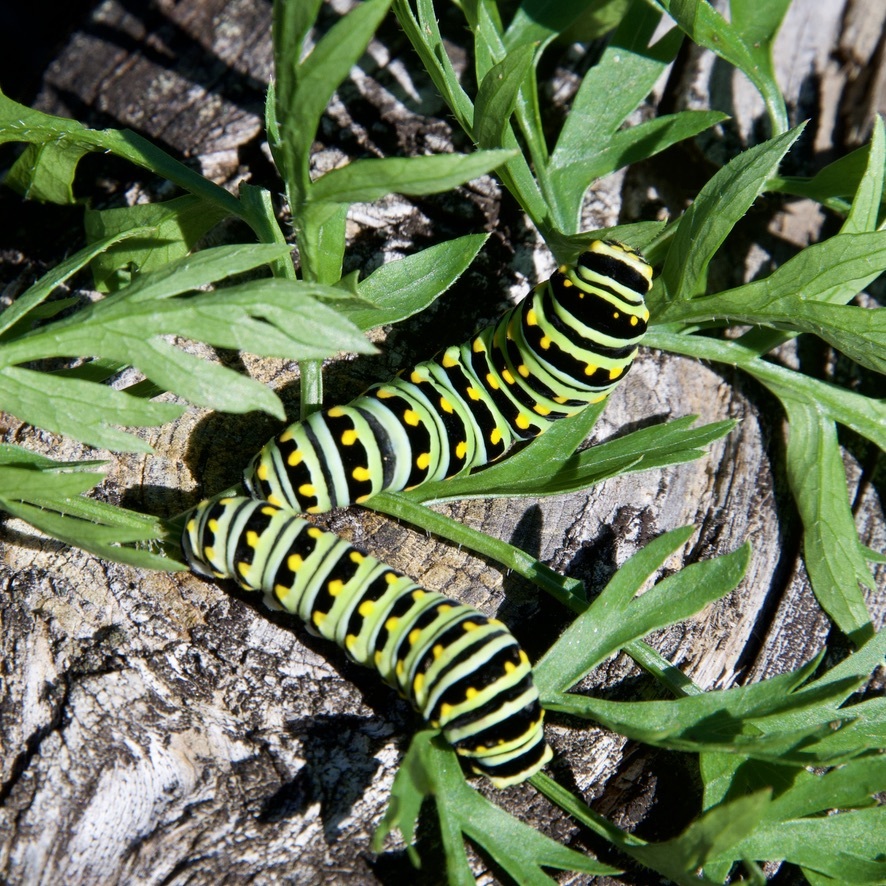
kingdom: Animalia
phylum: Arthropoda
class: Insecta
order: Lepidoptera
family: Papilionidae
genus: Papilio
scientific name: Papilio polyxenes
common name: Black swallowtail
